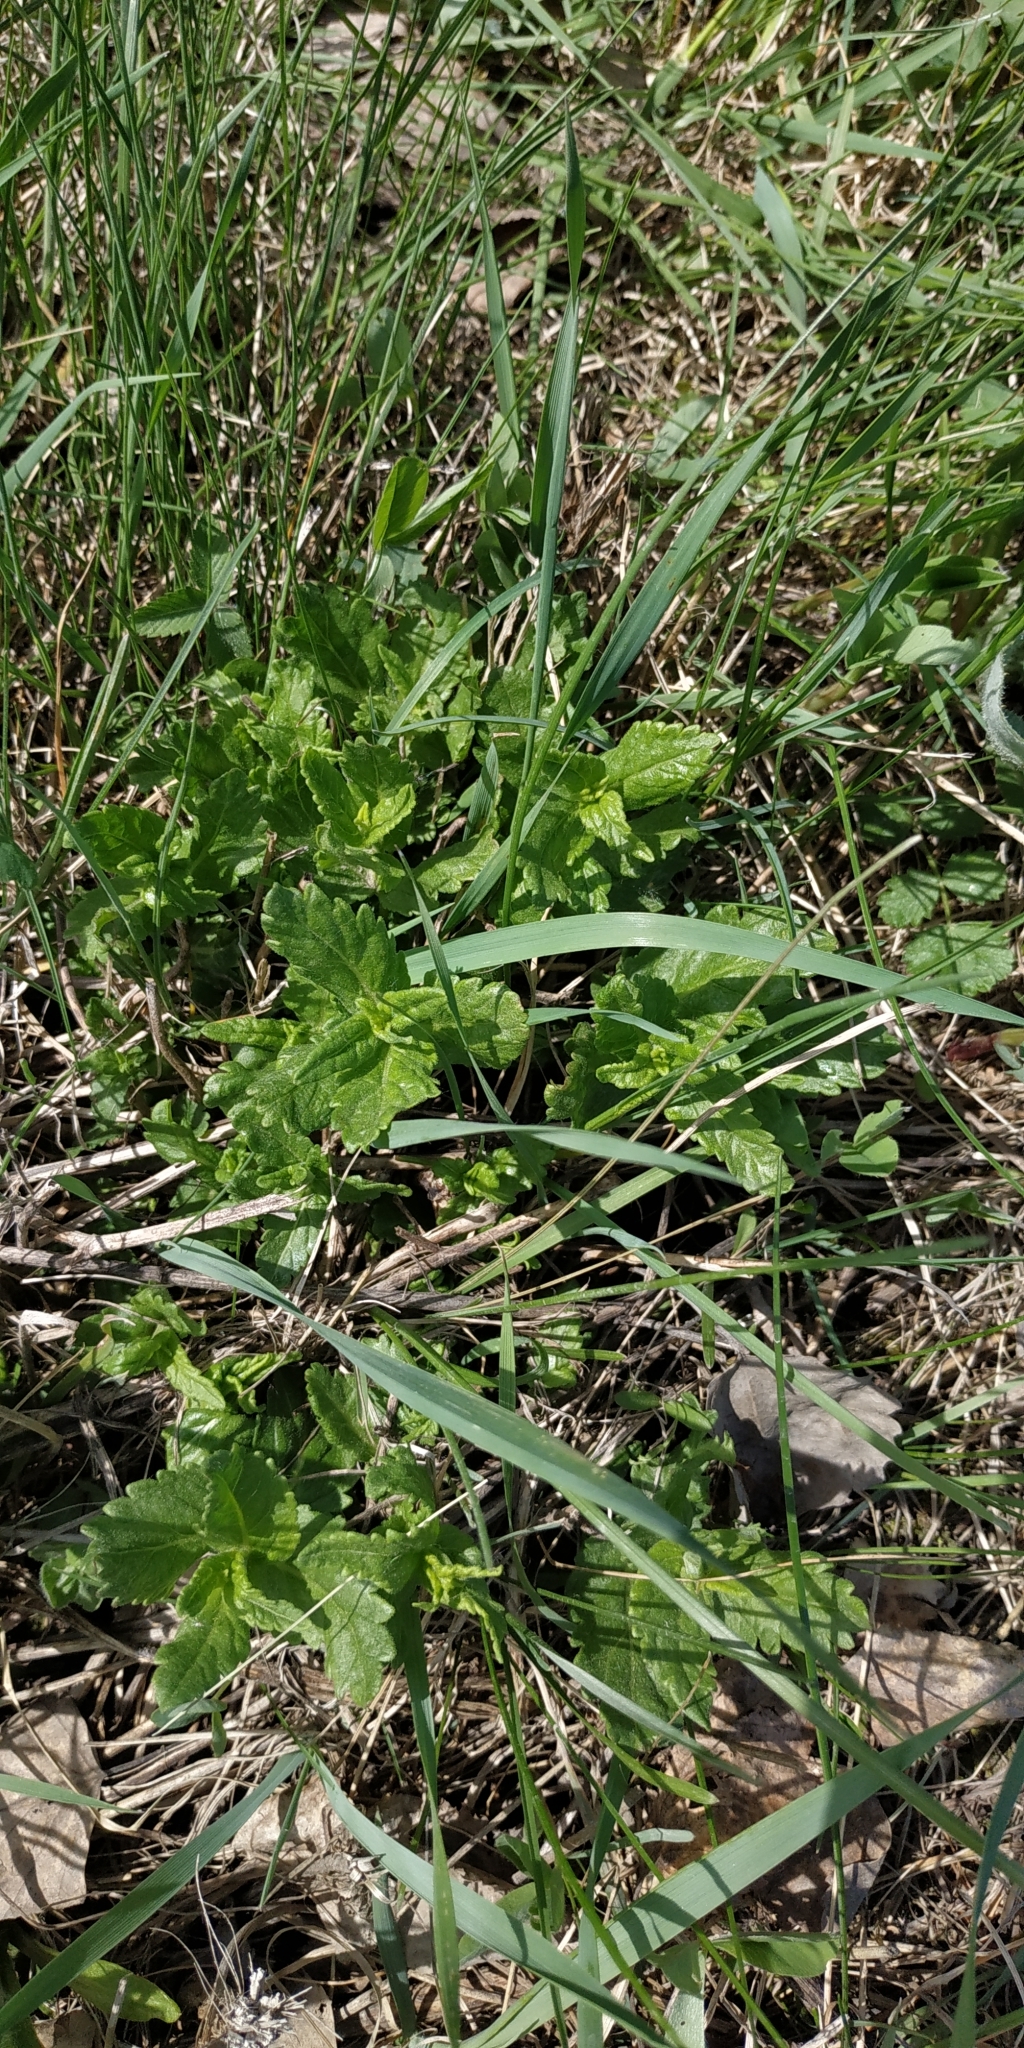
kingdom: Plantae
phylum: Tracheophyta
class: Magnoliopsida
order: Lamiales
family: Plantaginaceae
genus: Veronica
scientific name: Veronica teucrium
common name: Large speedwell
